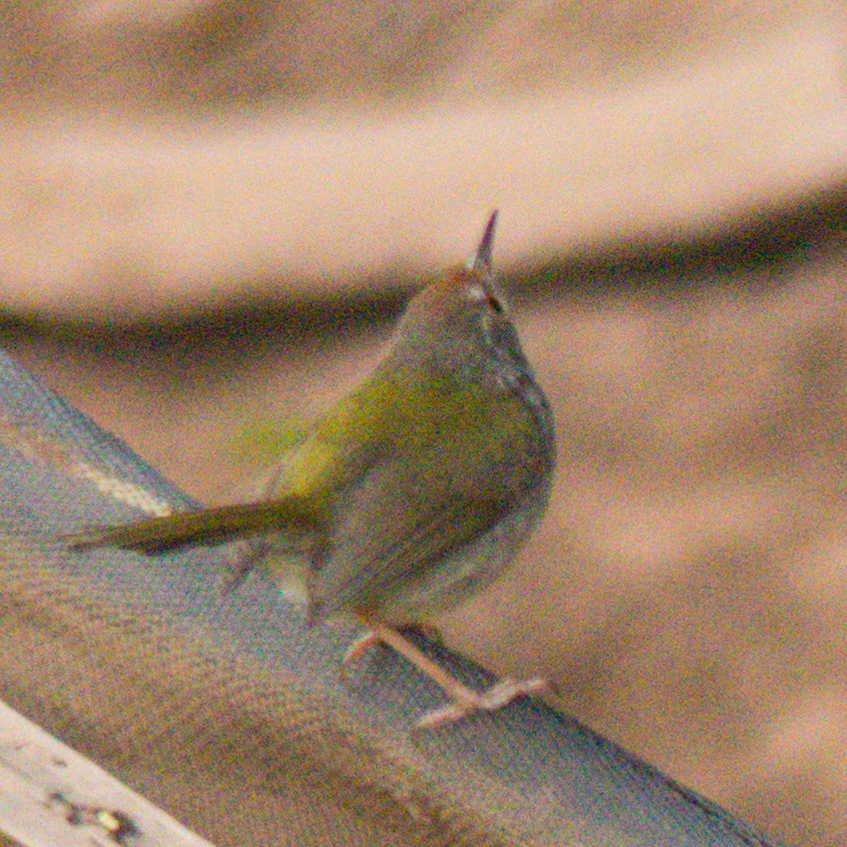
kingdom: Animalia
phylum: Chordata
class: Aves
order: Passeriformes
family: Cisticolidae
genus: Orthotomus
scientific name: Orthotomus sutorius
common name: Common tailorbird
